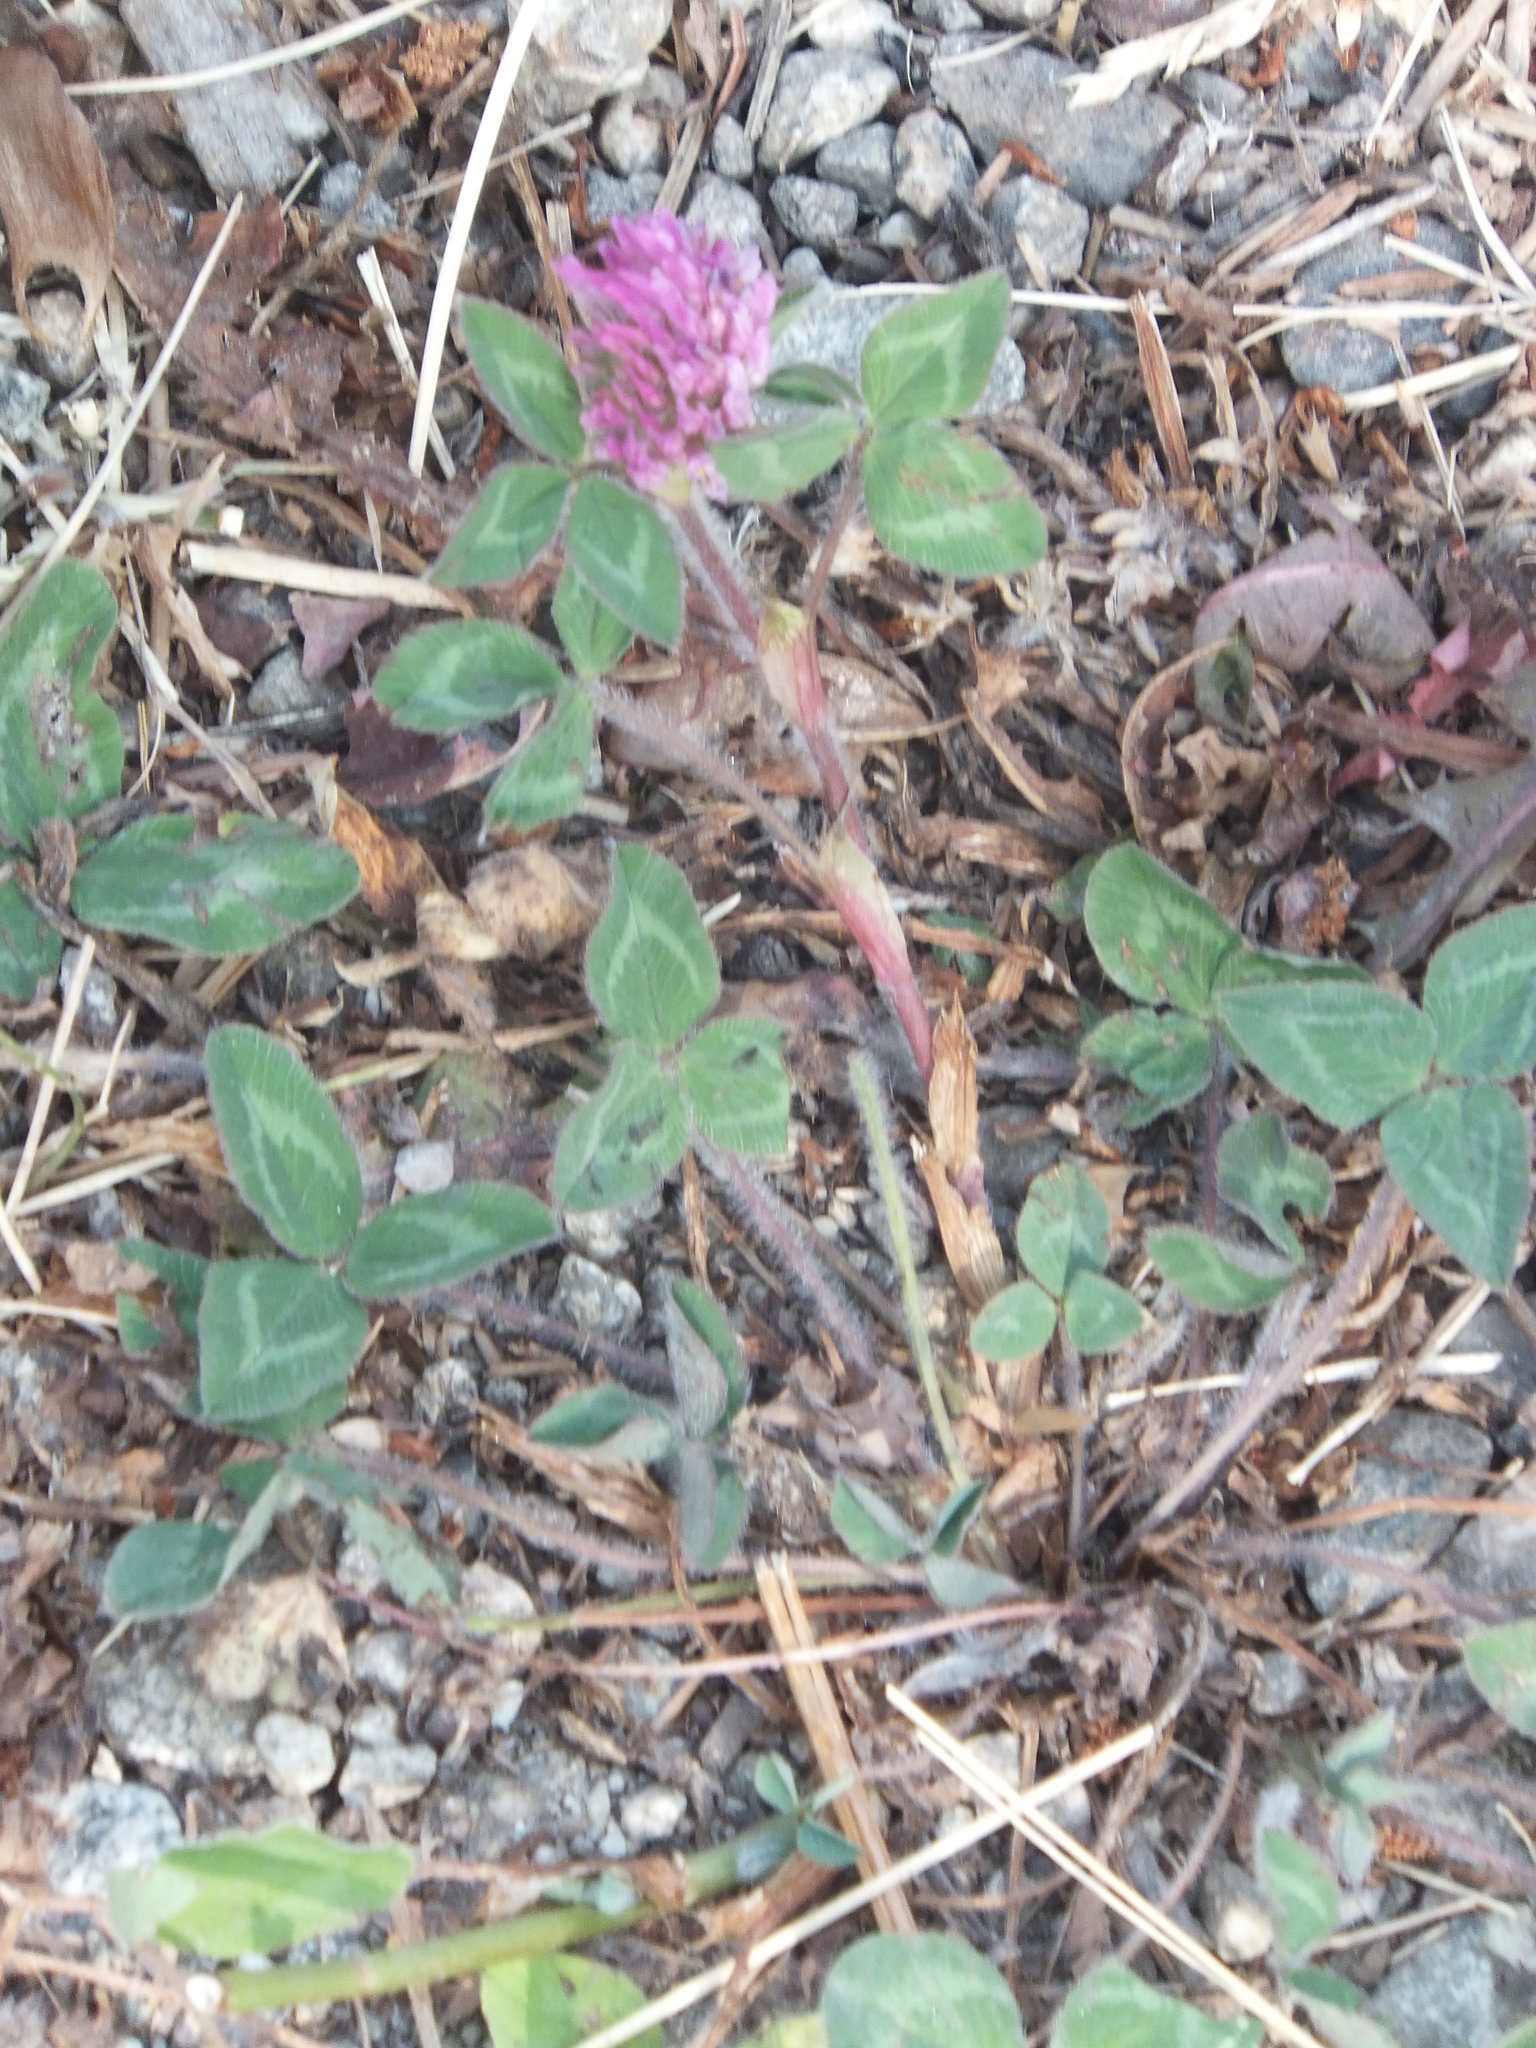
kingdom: Plantae
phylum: Tracheophyta
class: Magnoliopsida
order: Fabales
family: Fabaceae
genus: Trifolium
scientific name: Trifolium pratense
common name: Red clover
